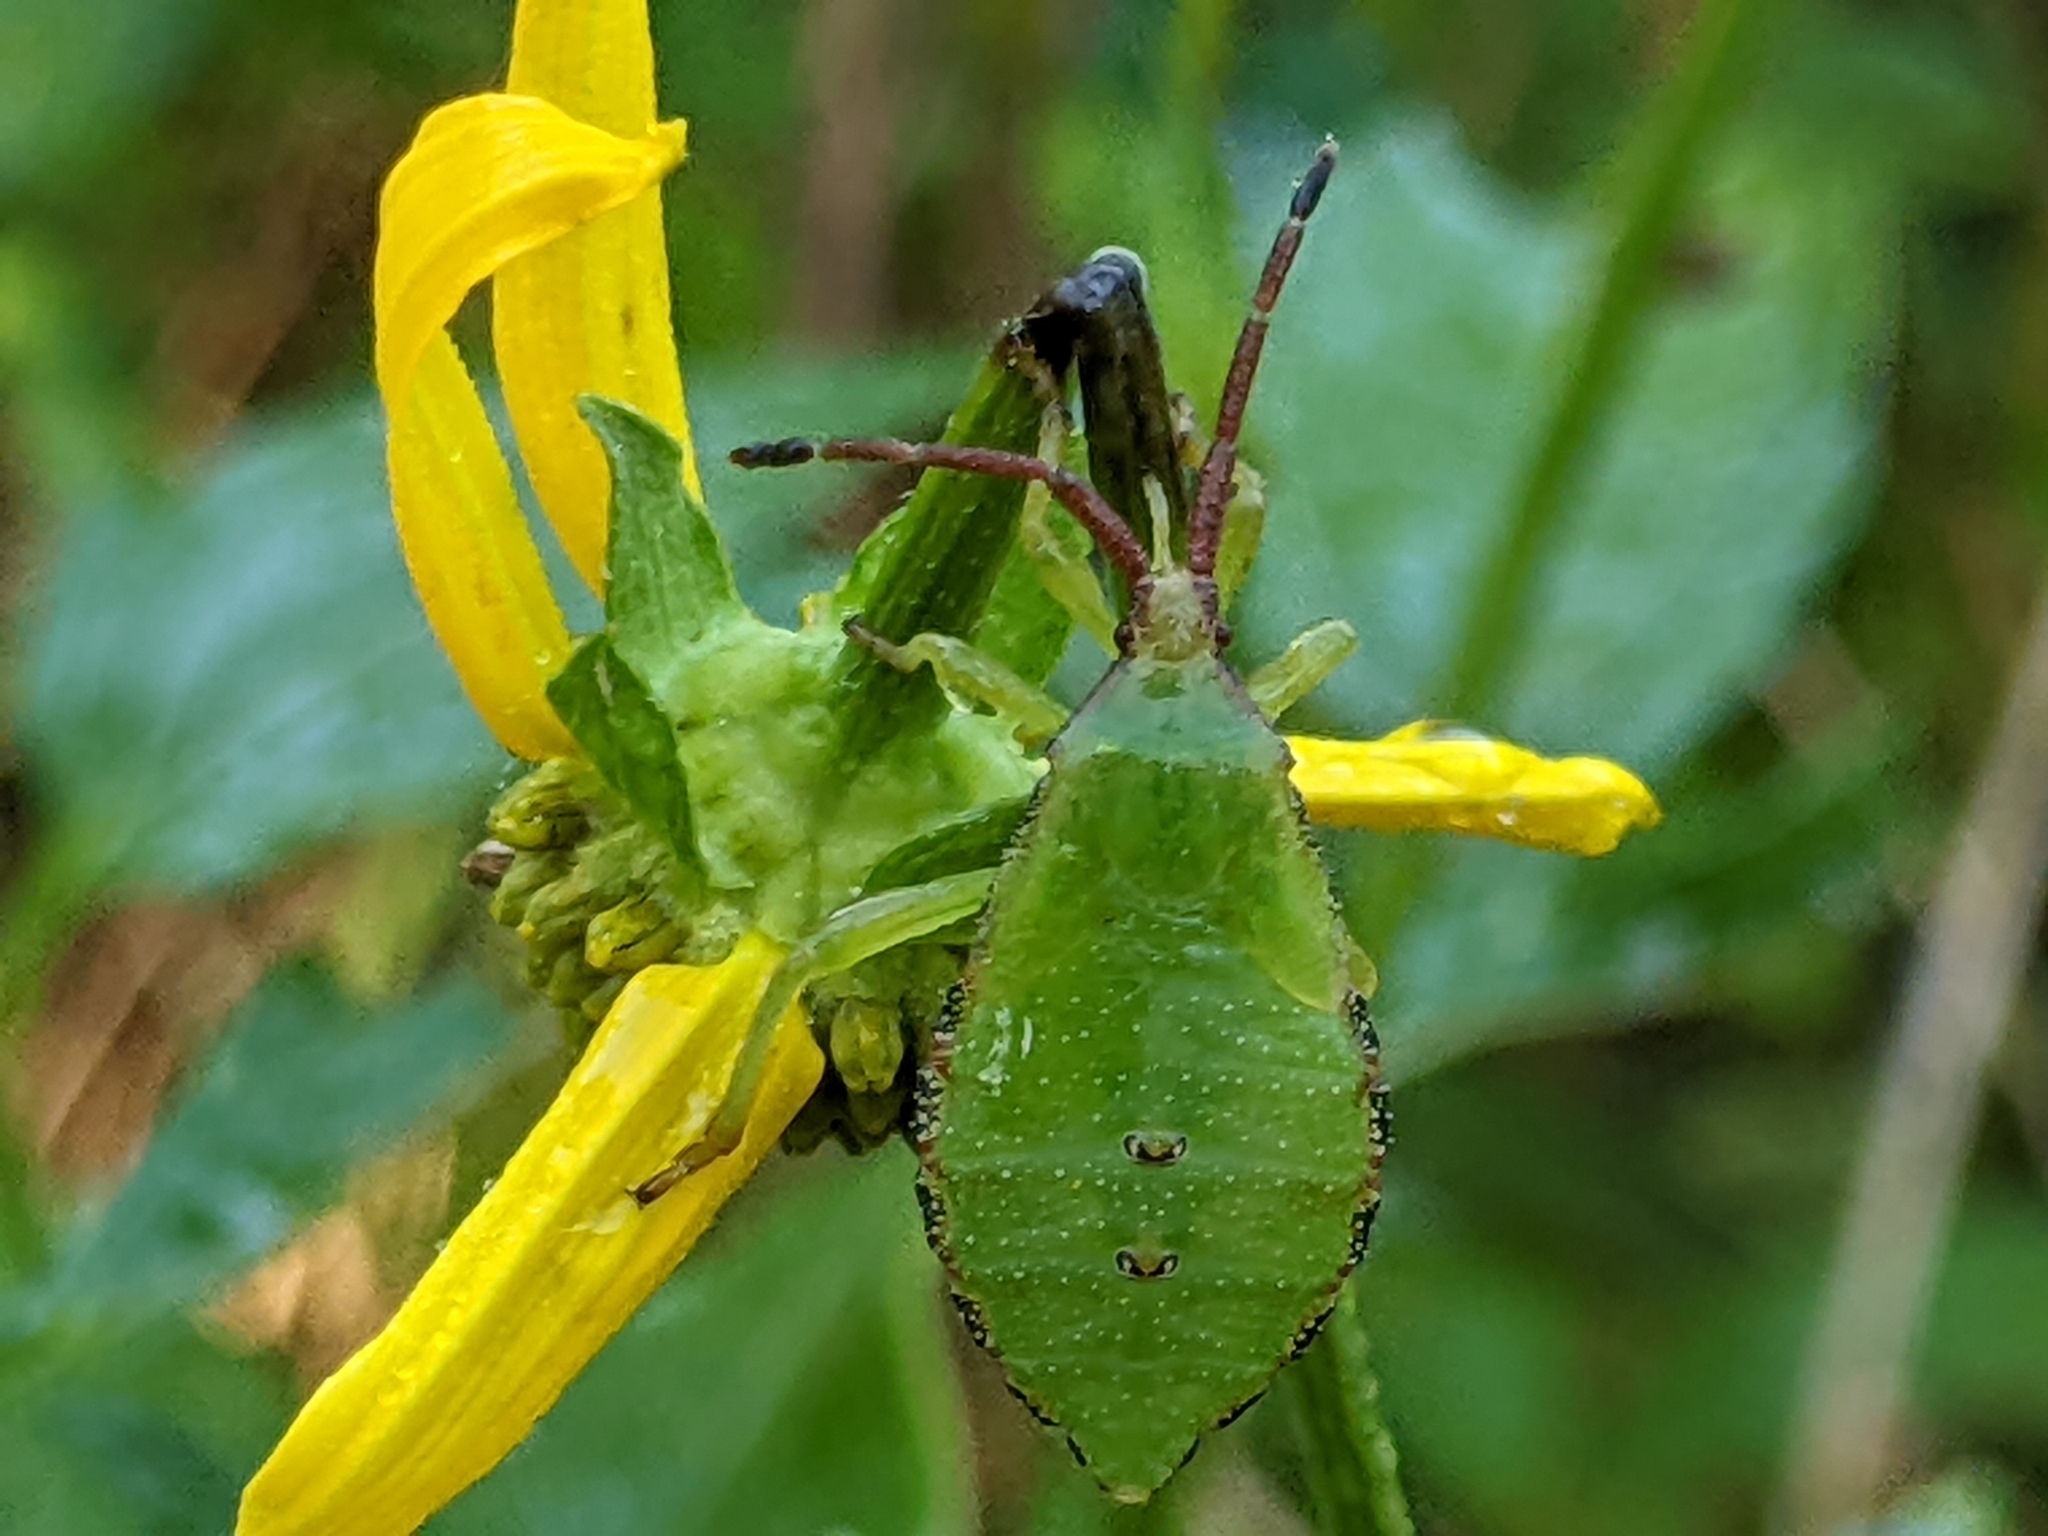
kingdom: Animalia
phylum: Arthropoda
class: Insecta
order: Hemiptera
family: Coreidae
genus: Piezogaster
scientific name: Piezogaster calcarator
